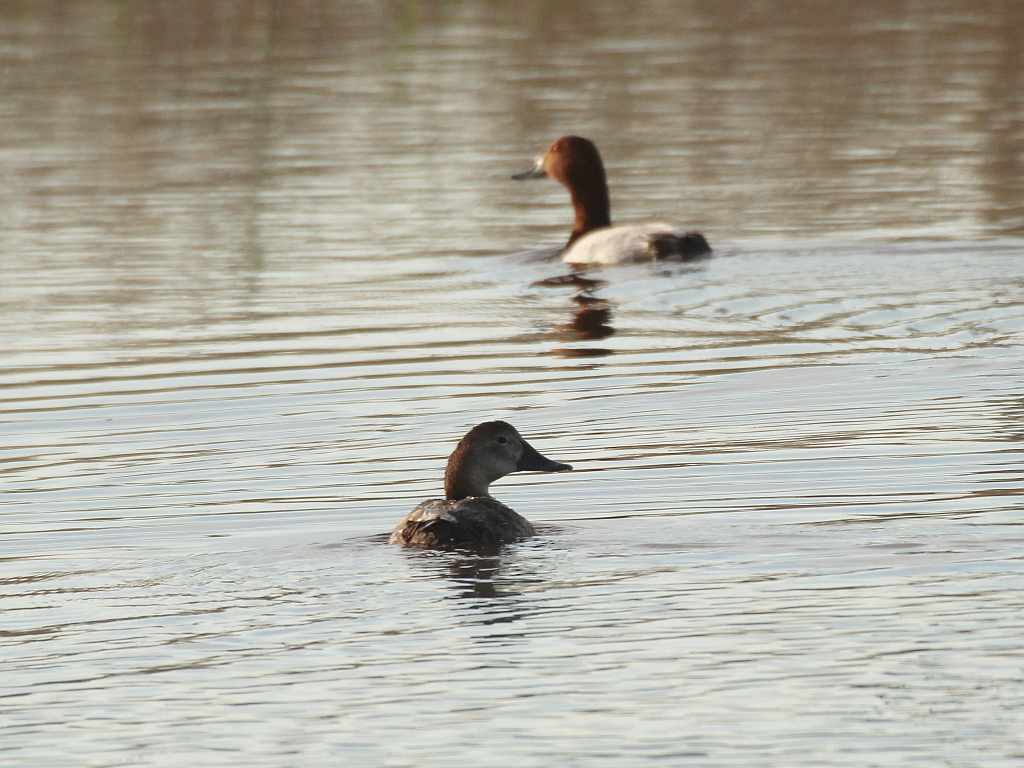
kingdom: Animalia
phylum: Chordata
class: Aves
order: Anseriformes
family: Anatidae
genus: Aythya
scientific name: Aythya ferina
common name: Common pochard
